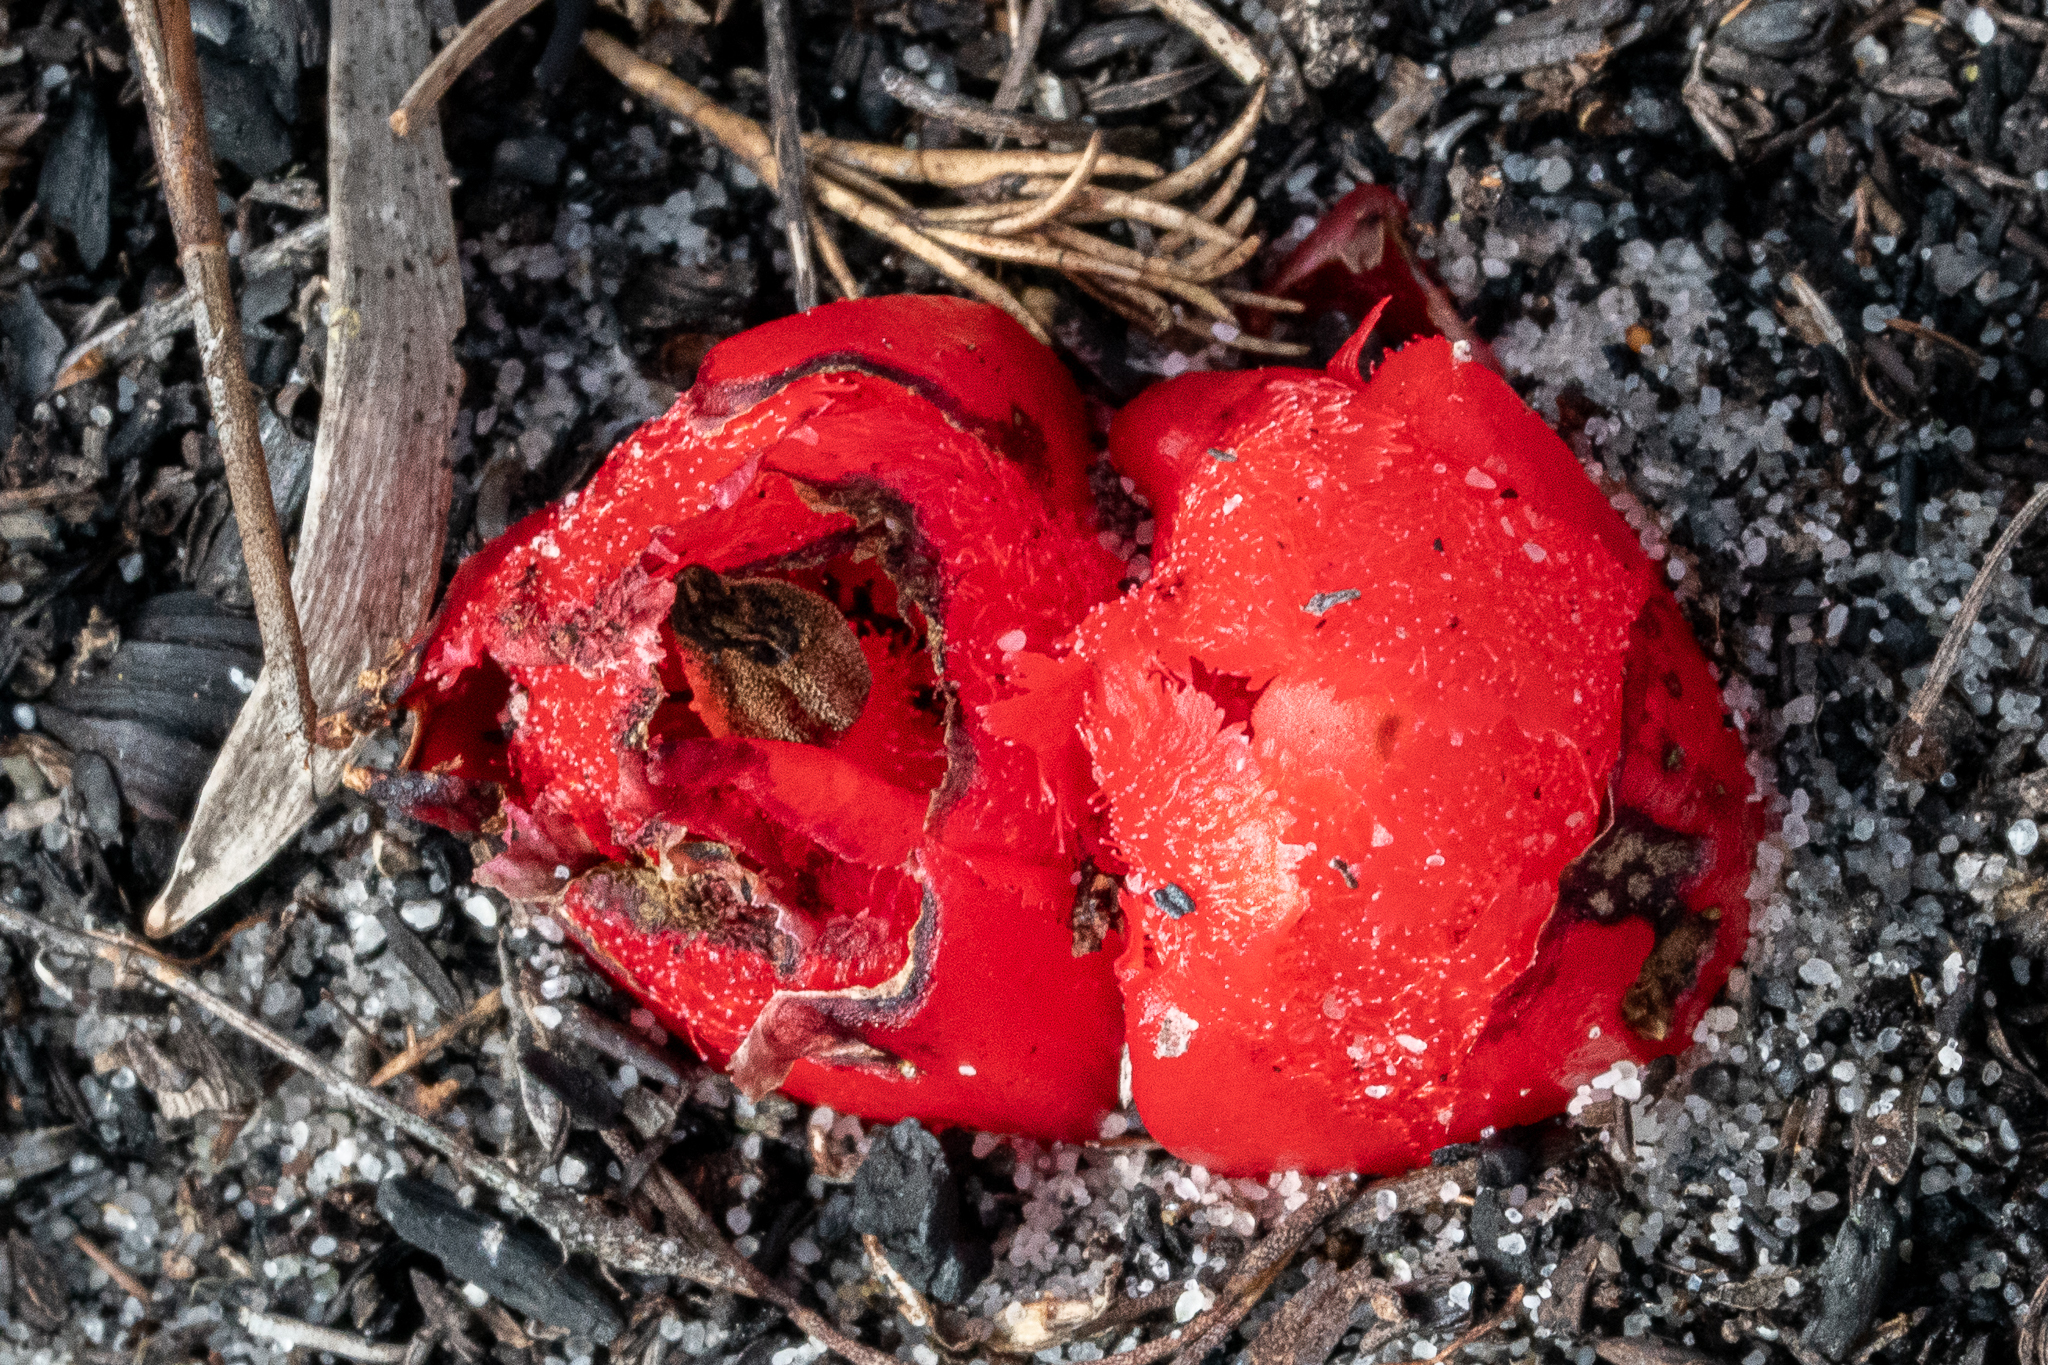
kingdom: Plantae
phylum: Tracheophyta
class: Magnoliopsida
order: Malvales
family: Cytinaceae
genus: Cytinus
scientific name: Cytinus sanguineus
